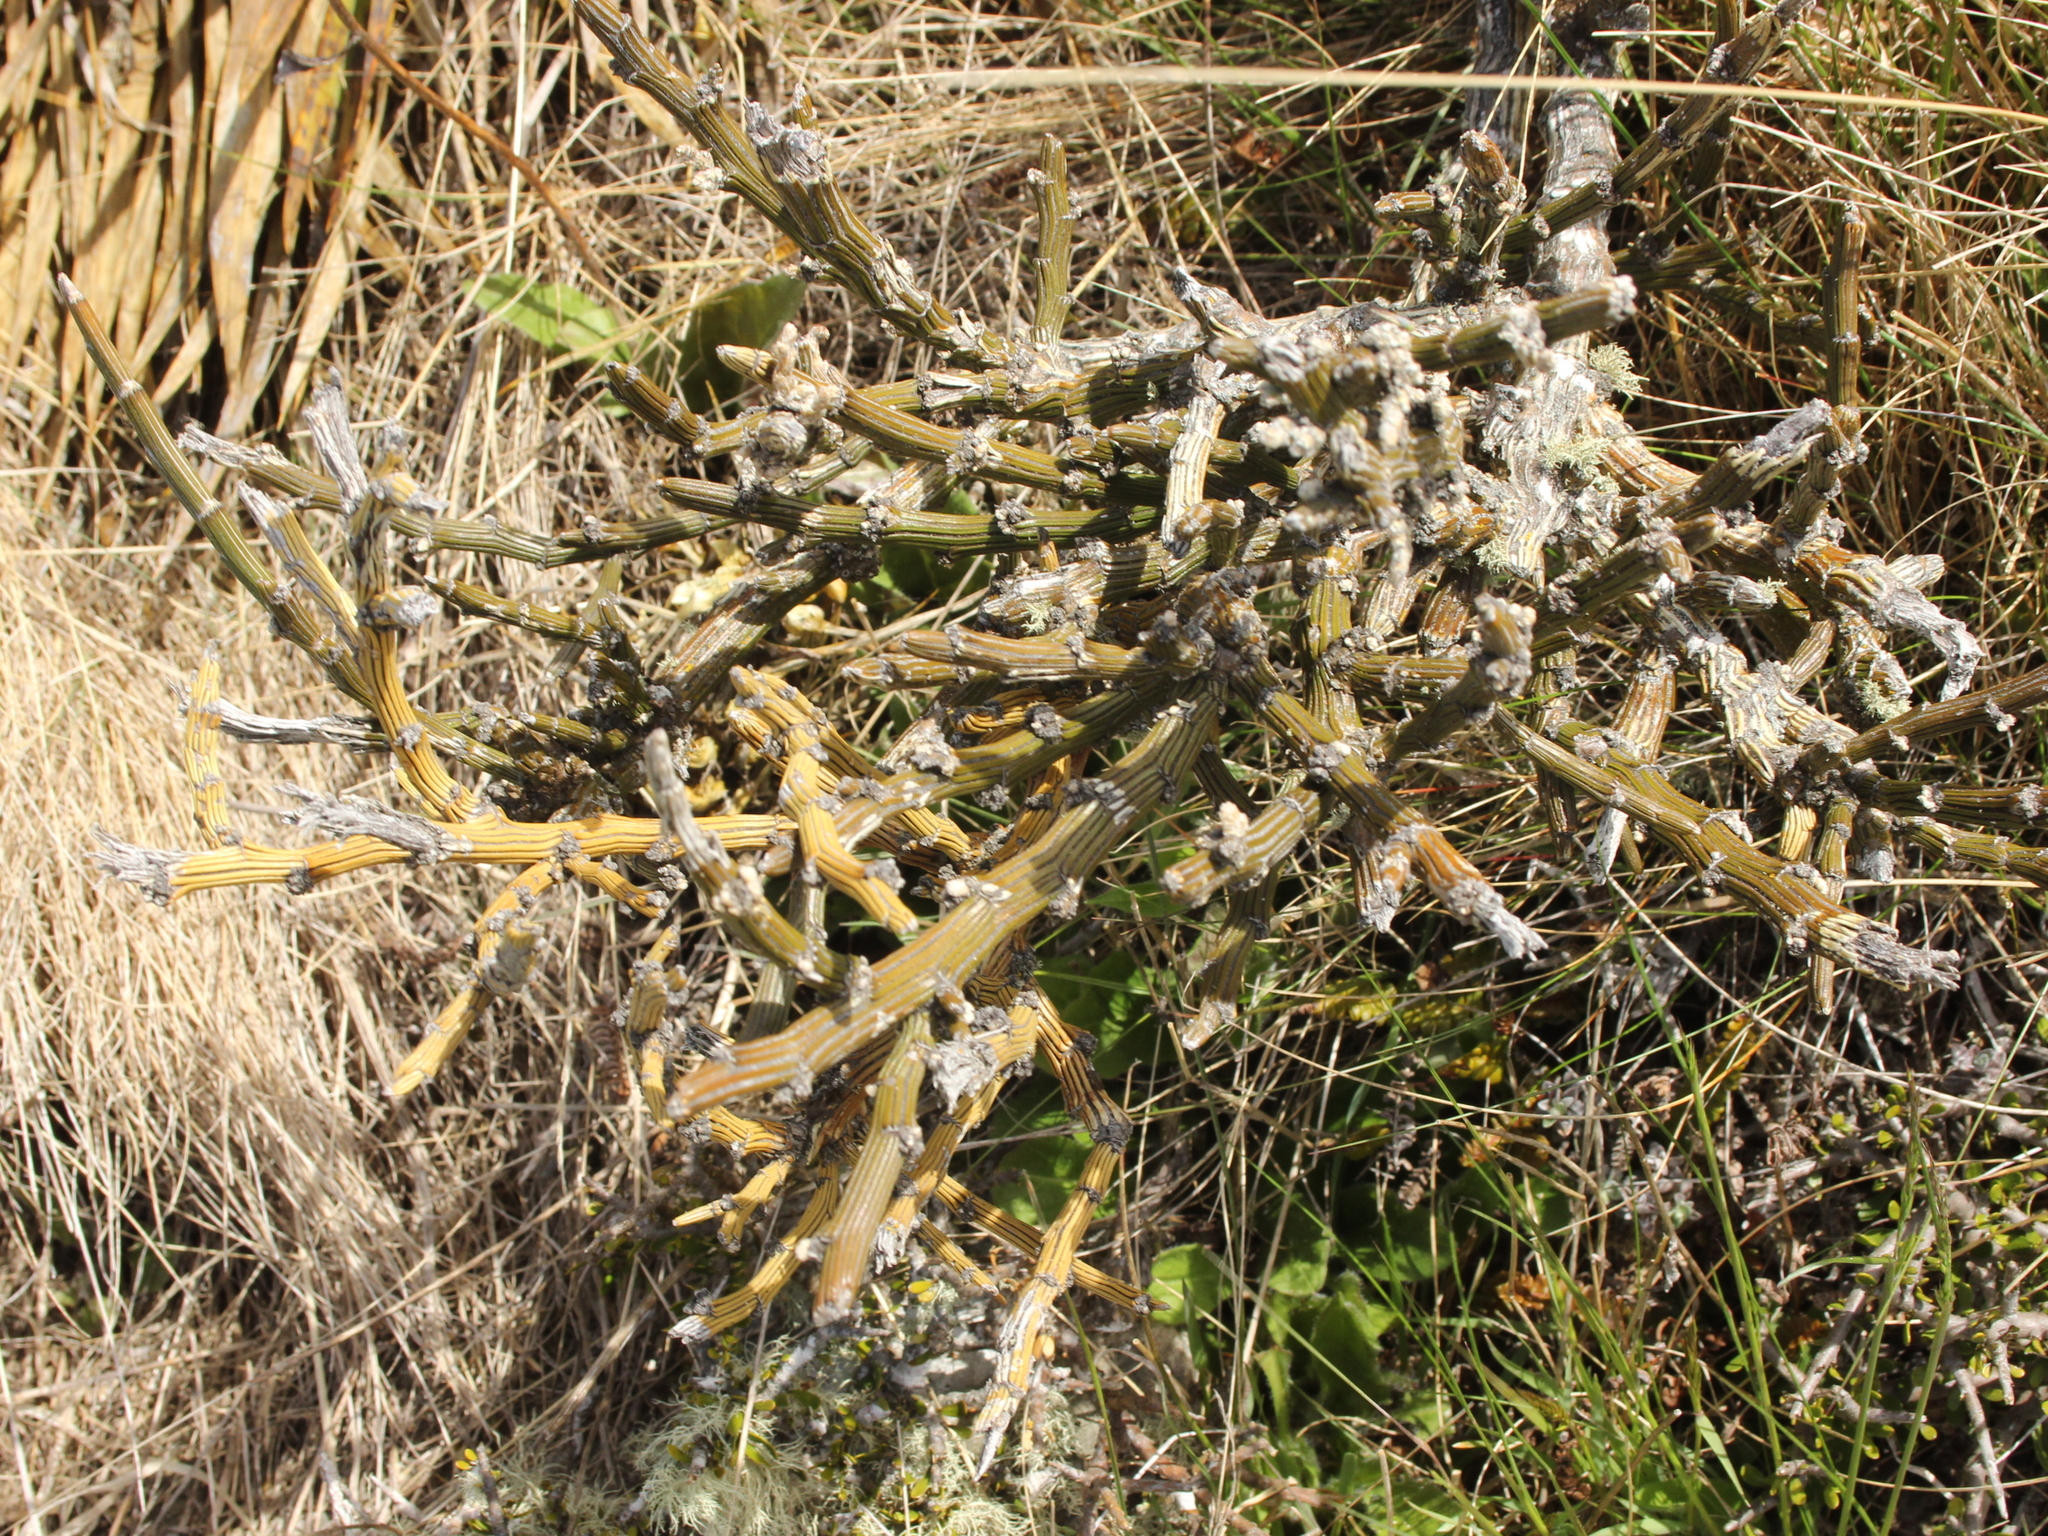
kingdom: Plantae
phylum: Tracheophyta
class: Magnoliopsida
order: Fabales
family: Fabaceae
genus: Carmichaelia
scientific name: Carmichaelia crassicaulis
